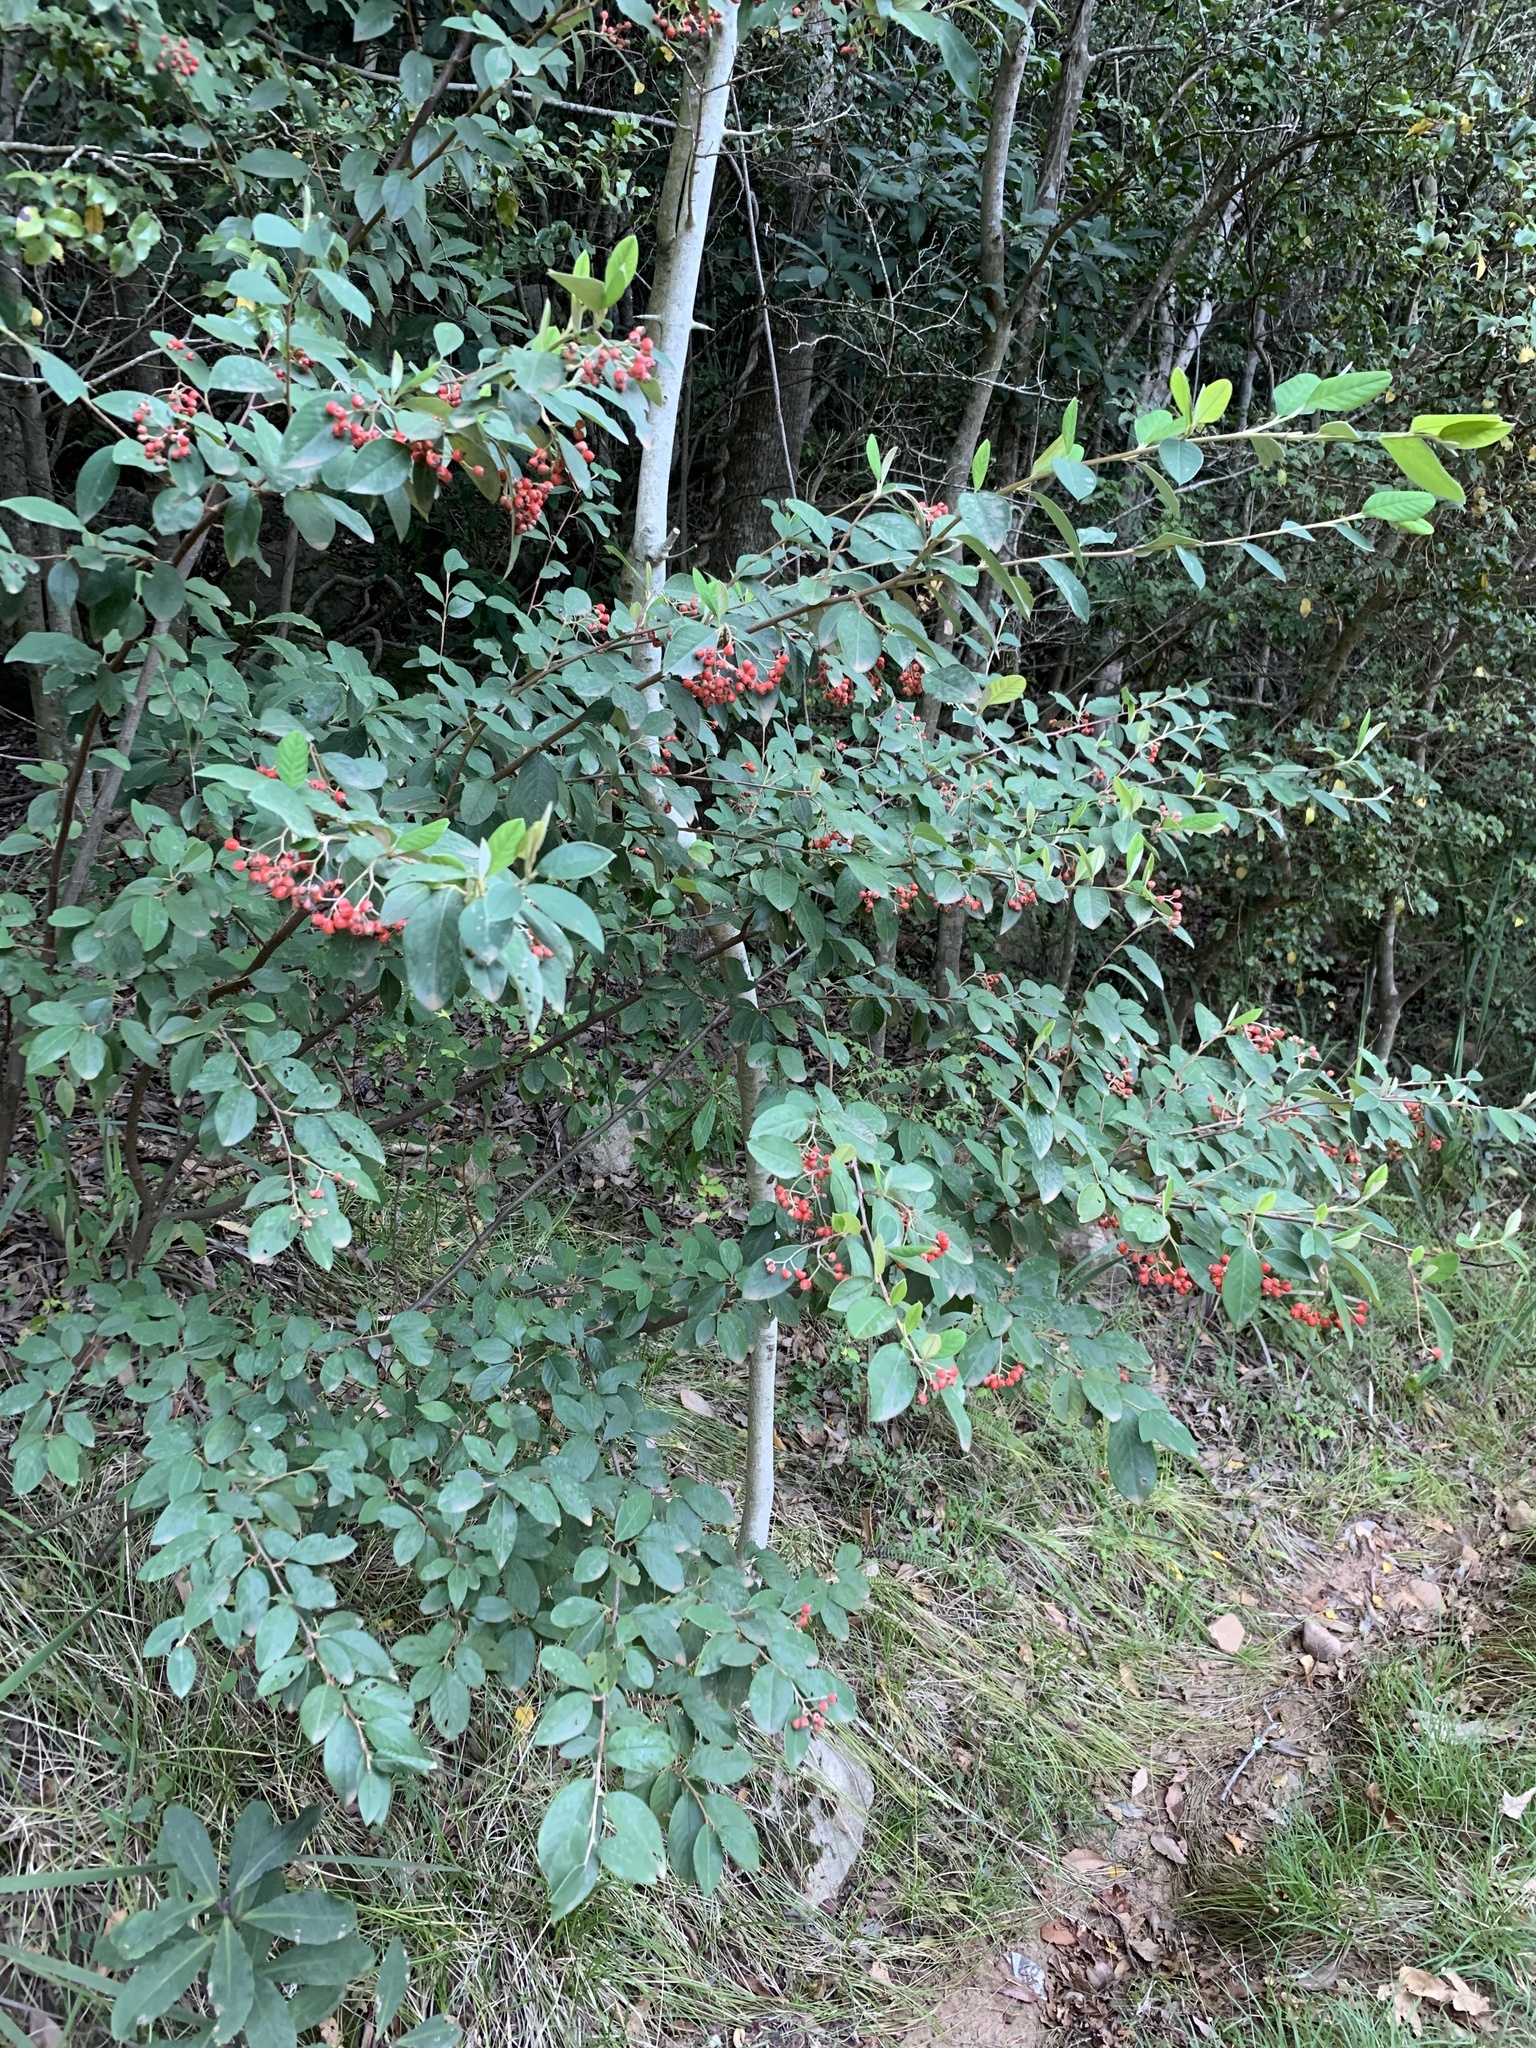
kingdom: Plantae
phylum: Tracheophyta
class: Magnoliopsida
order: Rosales
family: Rosaceae
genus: Cotoneaster
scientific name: Cotoneaster glaucophyllus
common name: Glaucous cotoneaster
